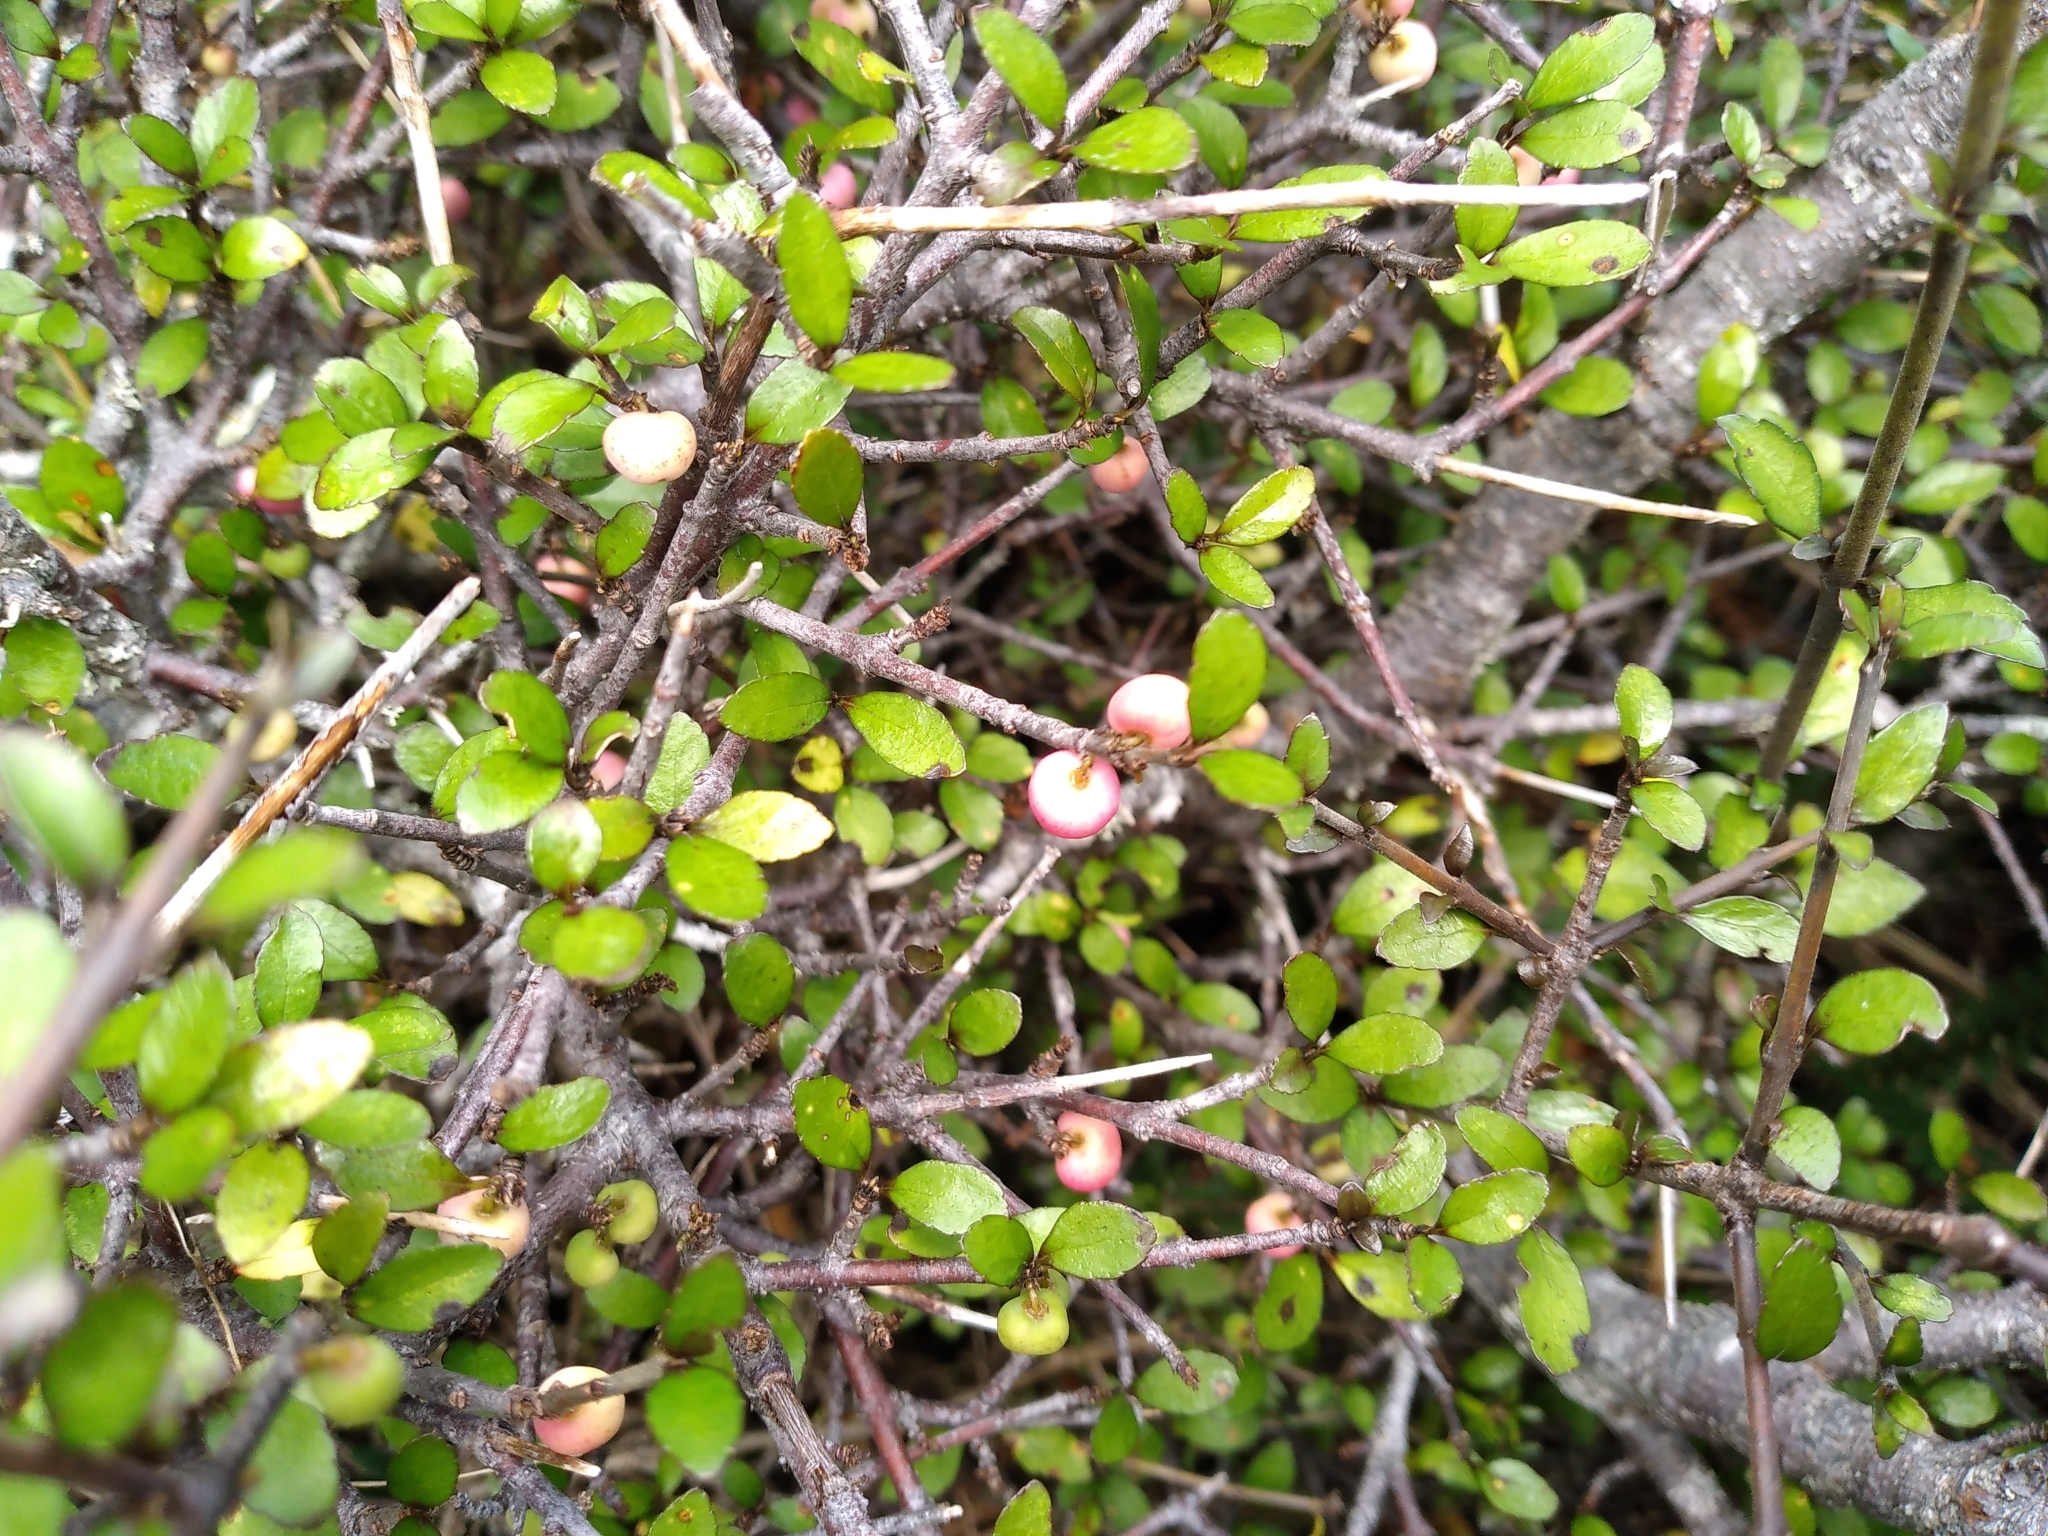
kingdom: Plantae
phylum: Tracheophyta
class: Magnoliopsida
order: Oxalidales
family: Elaeocarpaceae
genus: Aristotelia
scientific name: Aristotelia fruticosa
